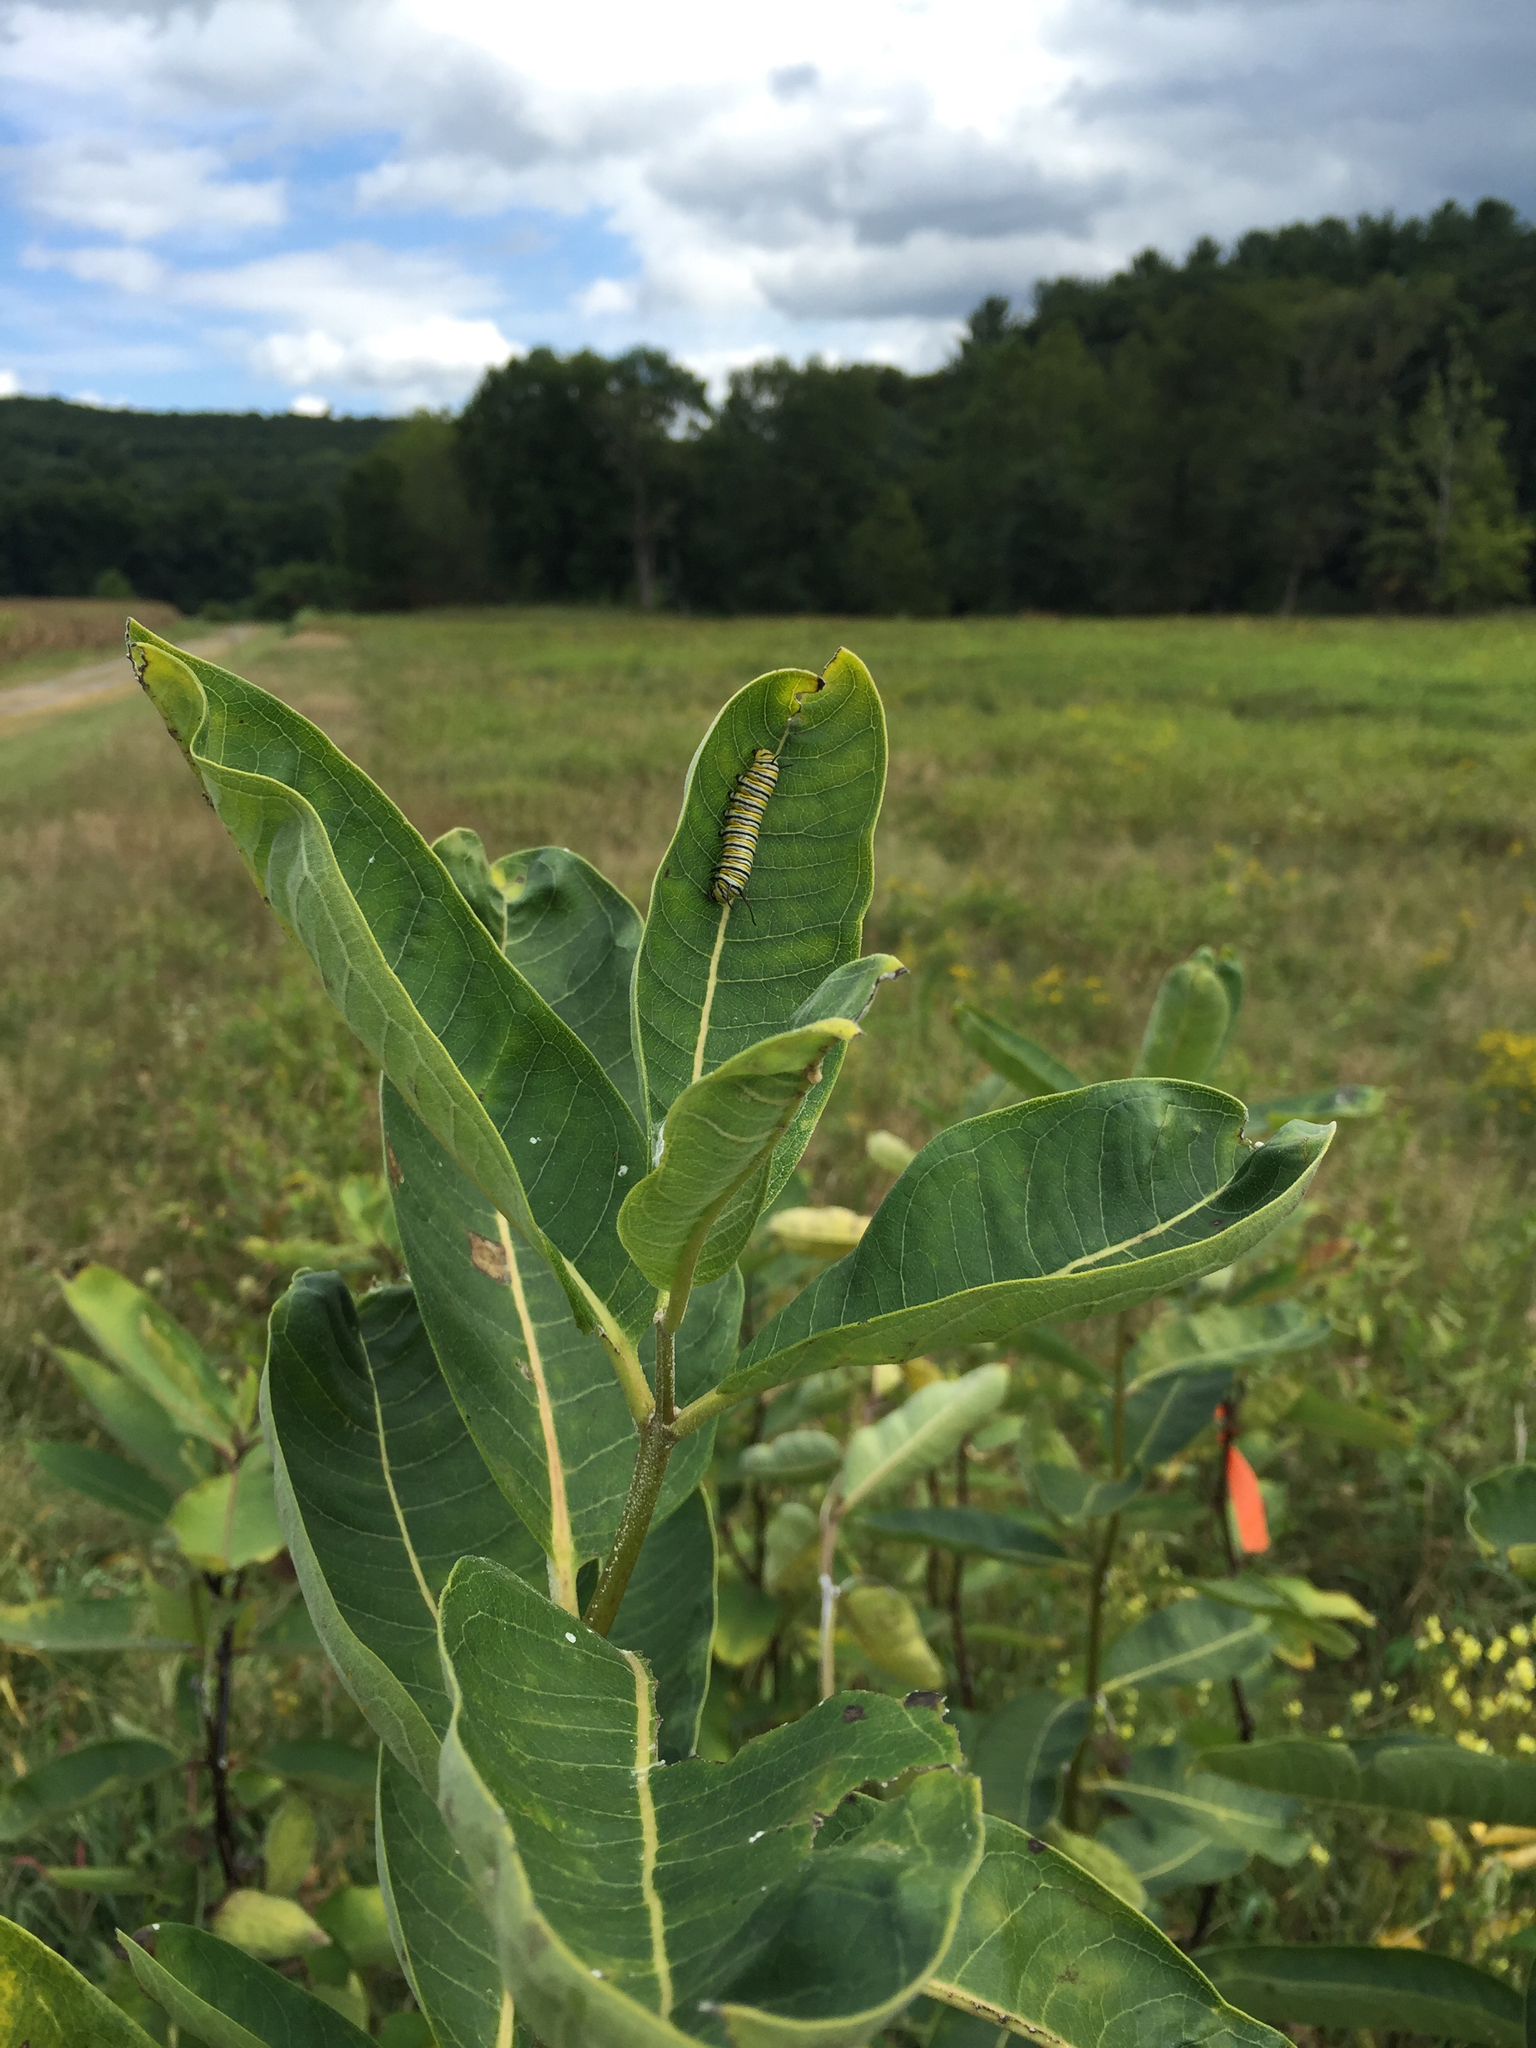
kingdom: Animalia
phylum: Arthropoda
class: Insecta
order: Lepidoptera
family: Nymphalidae
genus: Danaus
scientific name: Danaus plexippus
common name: Monarch
